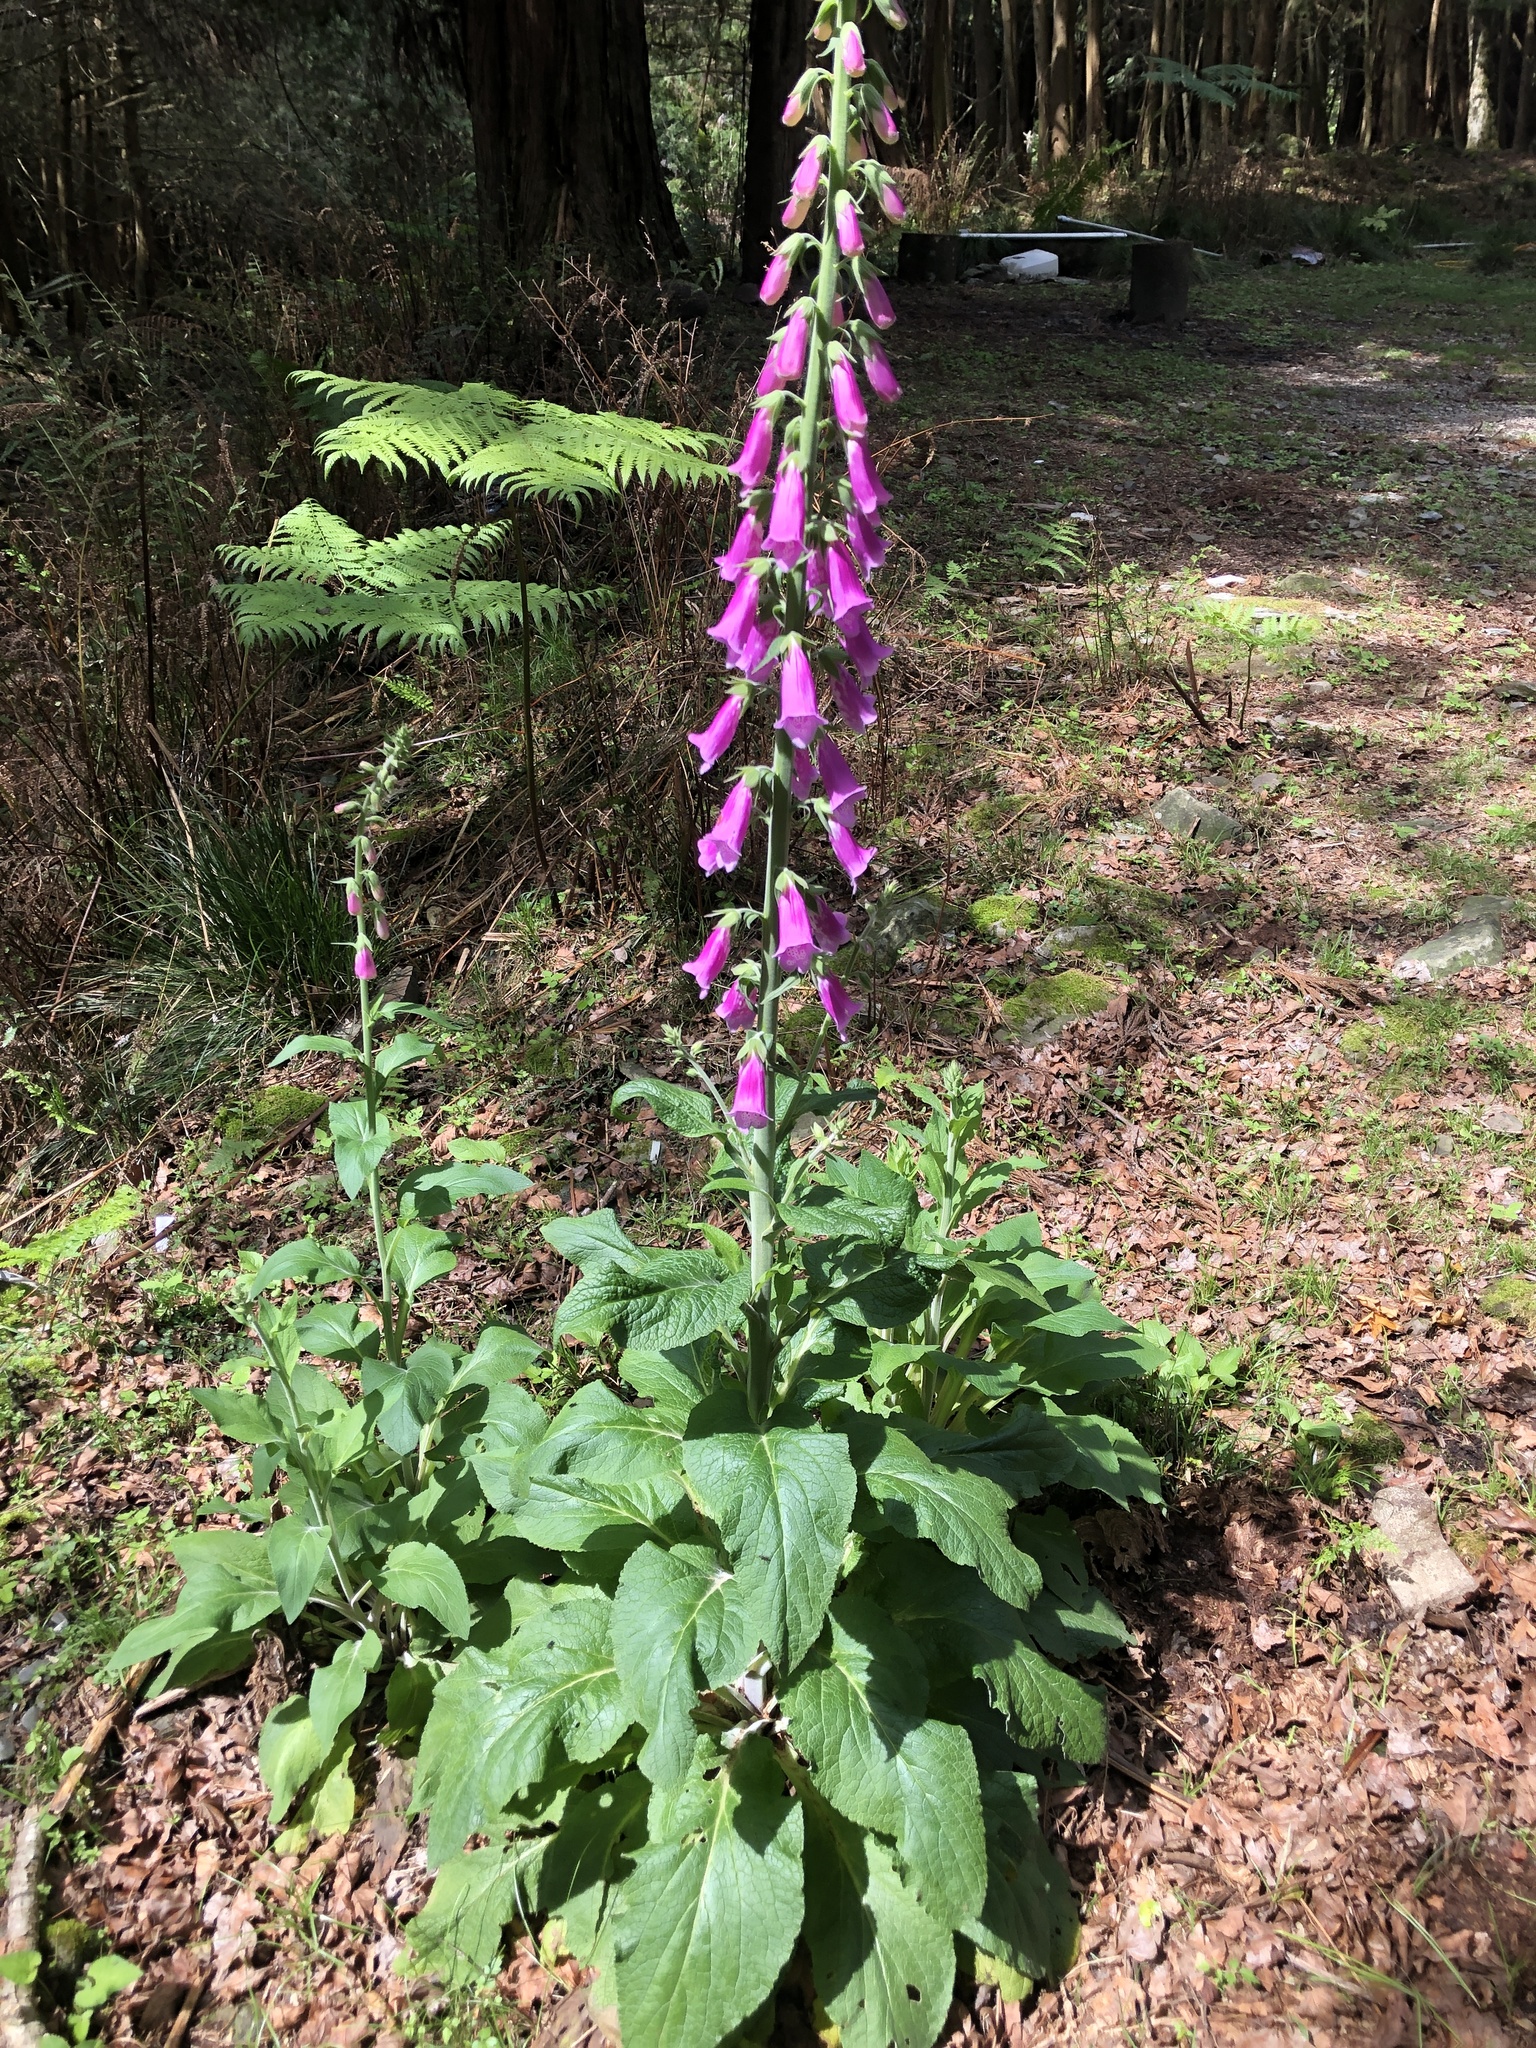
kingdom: Plantae
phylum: Tracheophyta
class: Magnoliopsida
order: Lamiales
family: Plantaginaceae
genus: Digitalis
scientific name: Digitalis purpurea
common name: Foxglove
